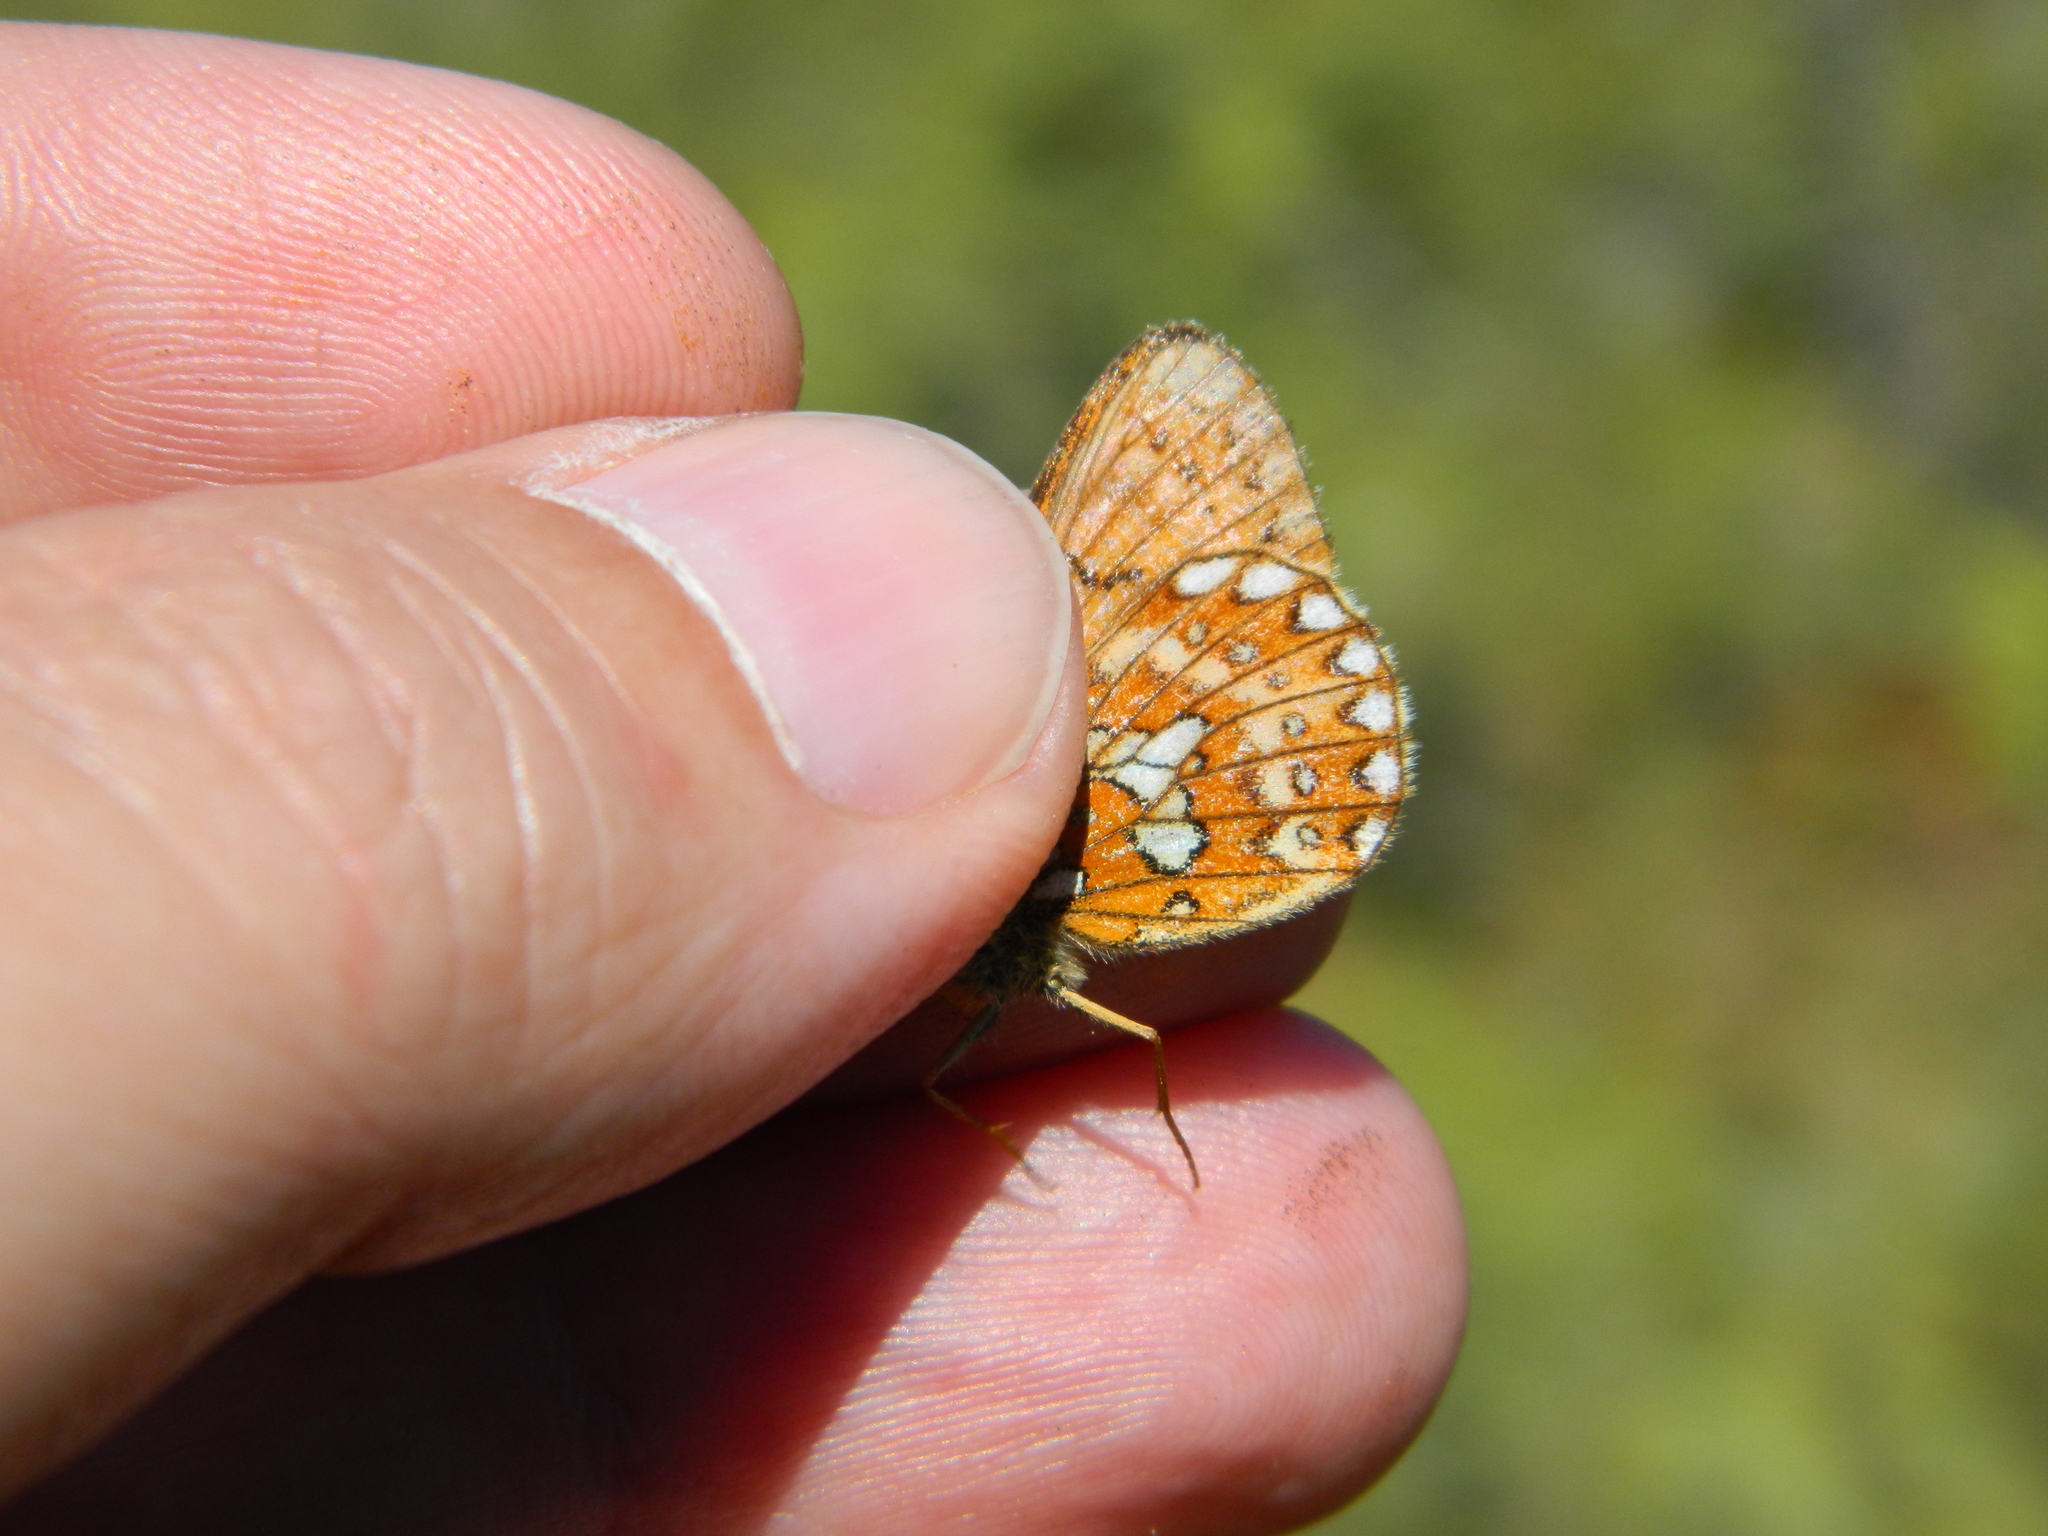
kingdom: Animalia
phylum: Arthropoda
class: Insecta
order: Lepidoptera
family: Nymphalidae
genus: Boloria
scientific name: Boloria eunomia
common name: Bog fritillary
